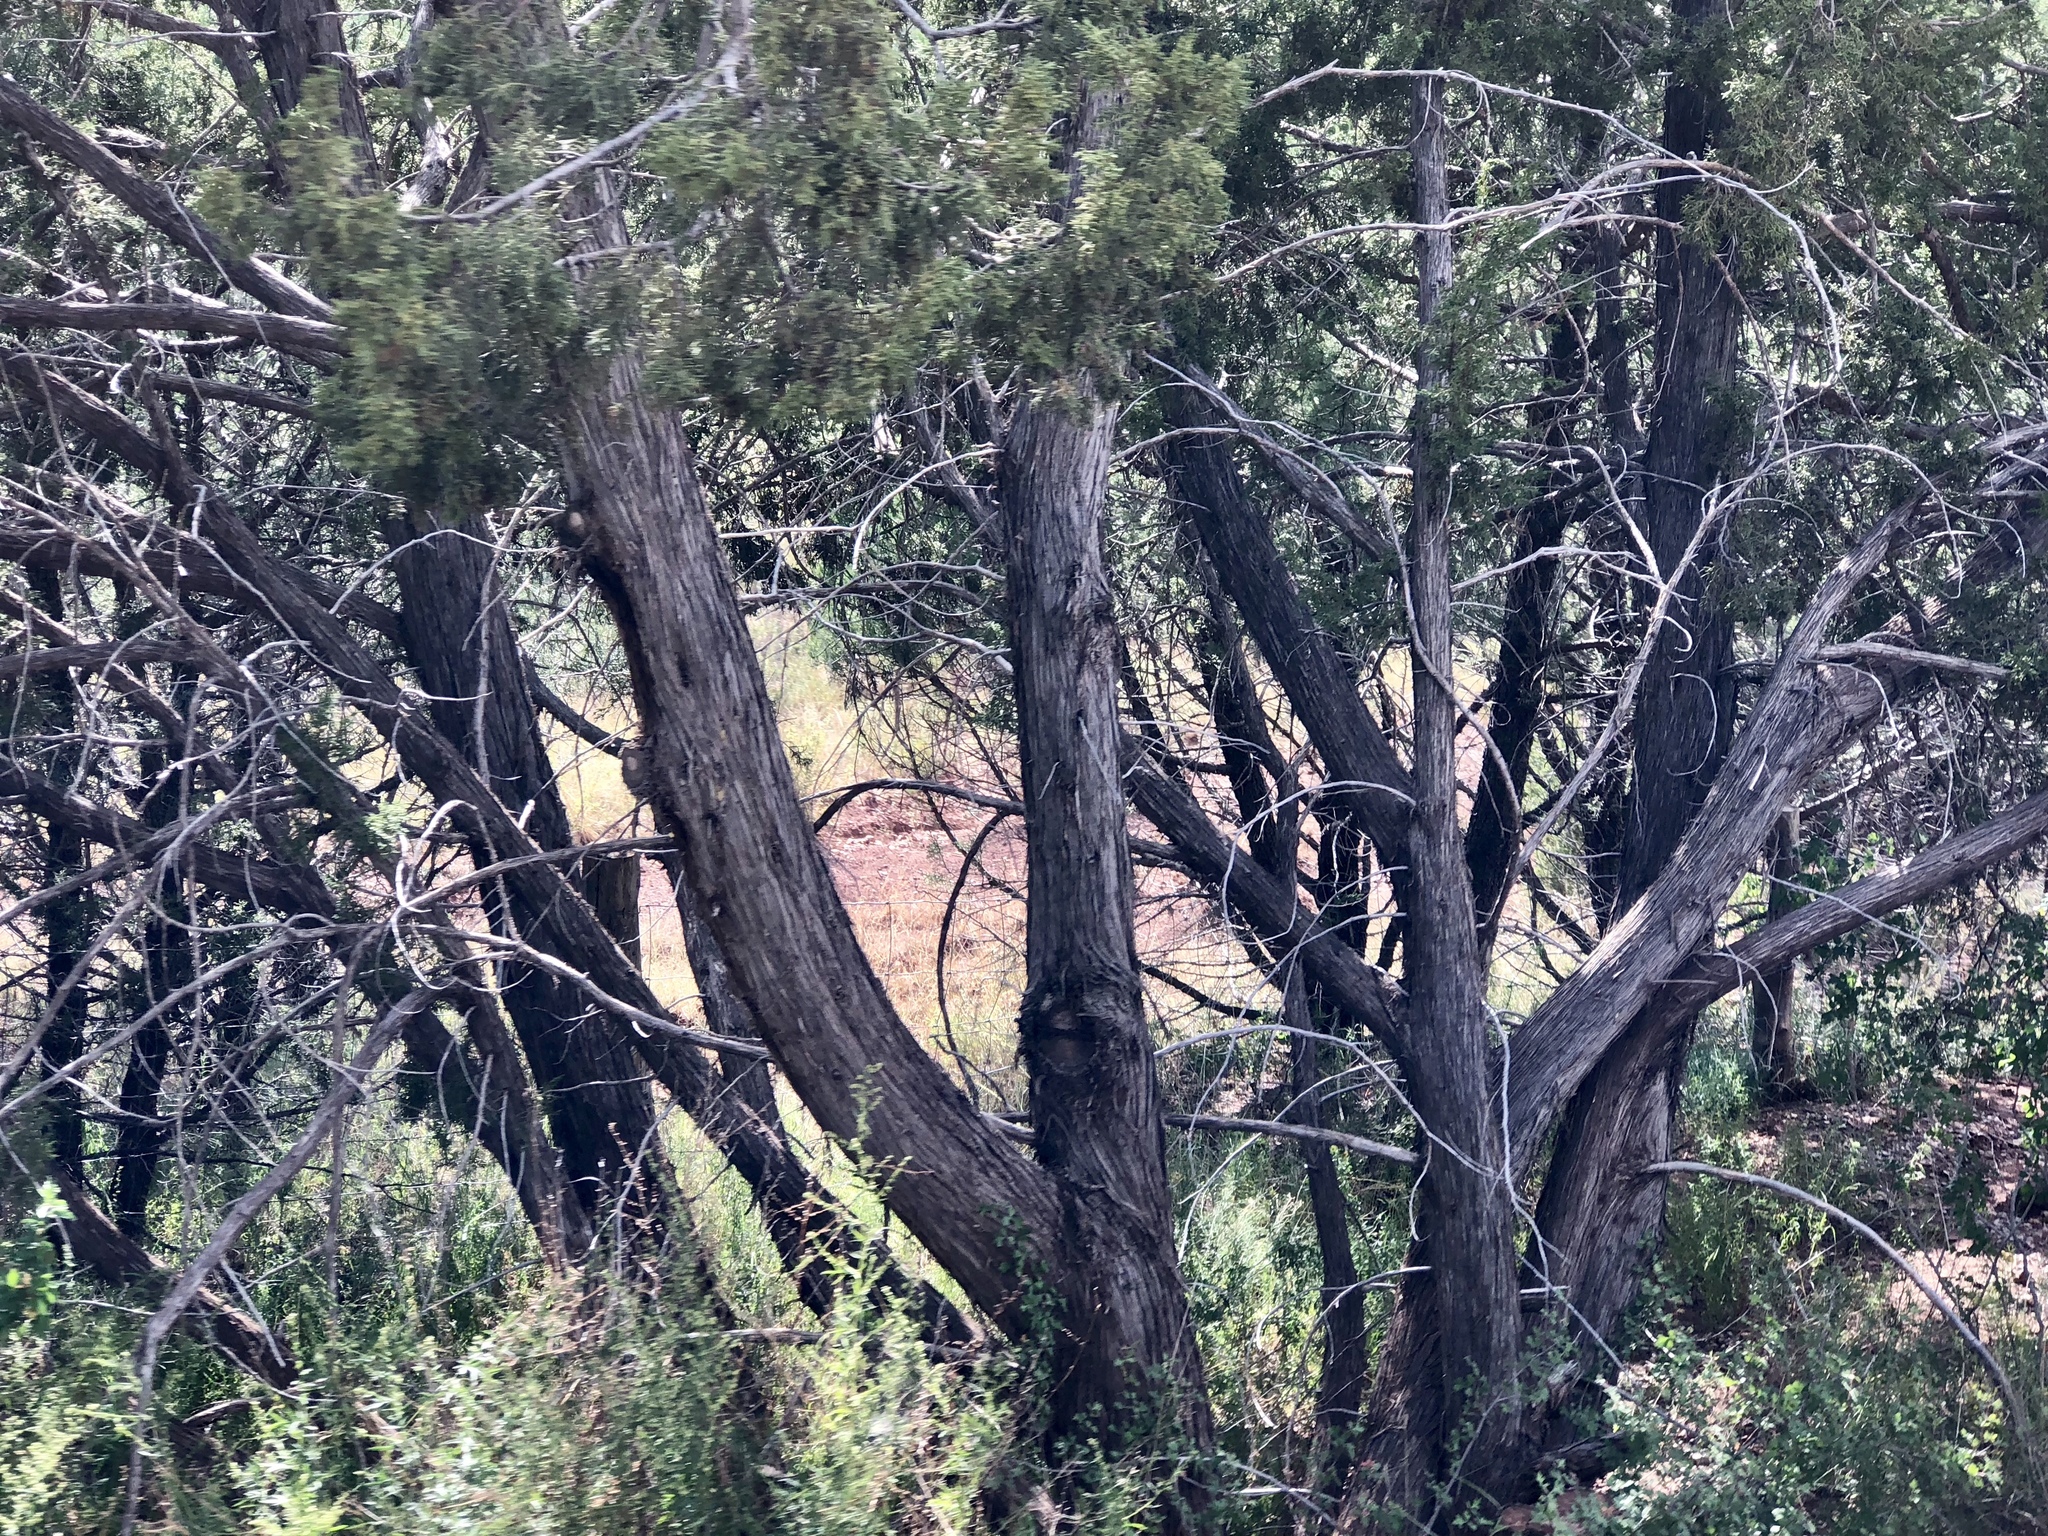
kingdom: Plantae
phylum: Tracheophyta
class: Pinopsida
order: Pinales
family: Cupressaceae
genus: Juniperus
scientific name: Juniperus monosperma
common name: One-seed juniper
